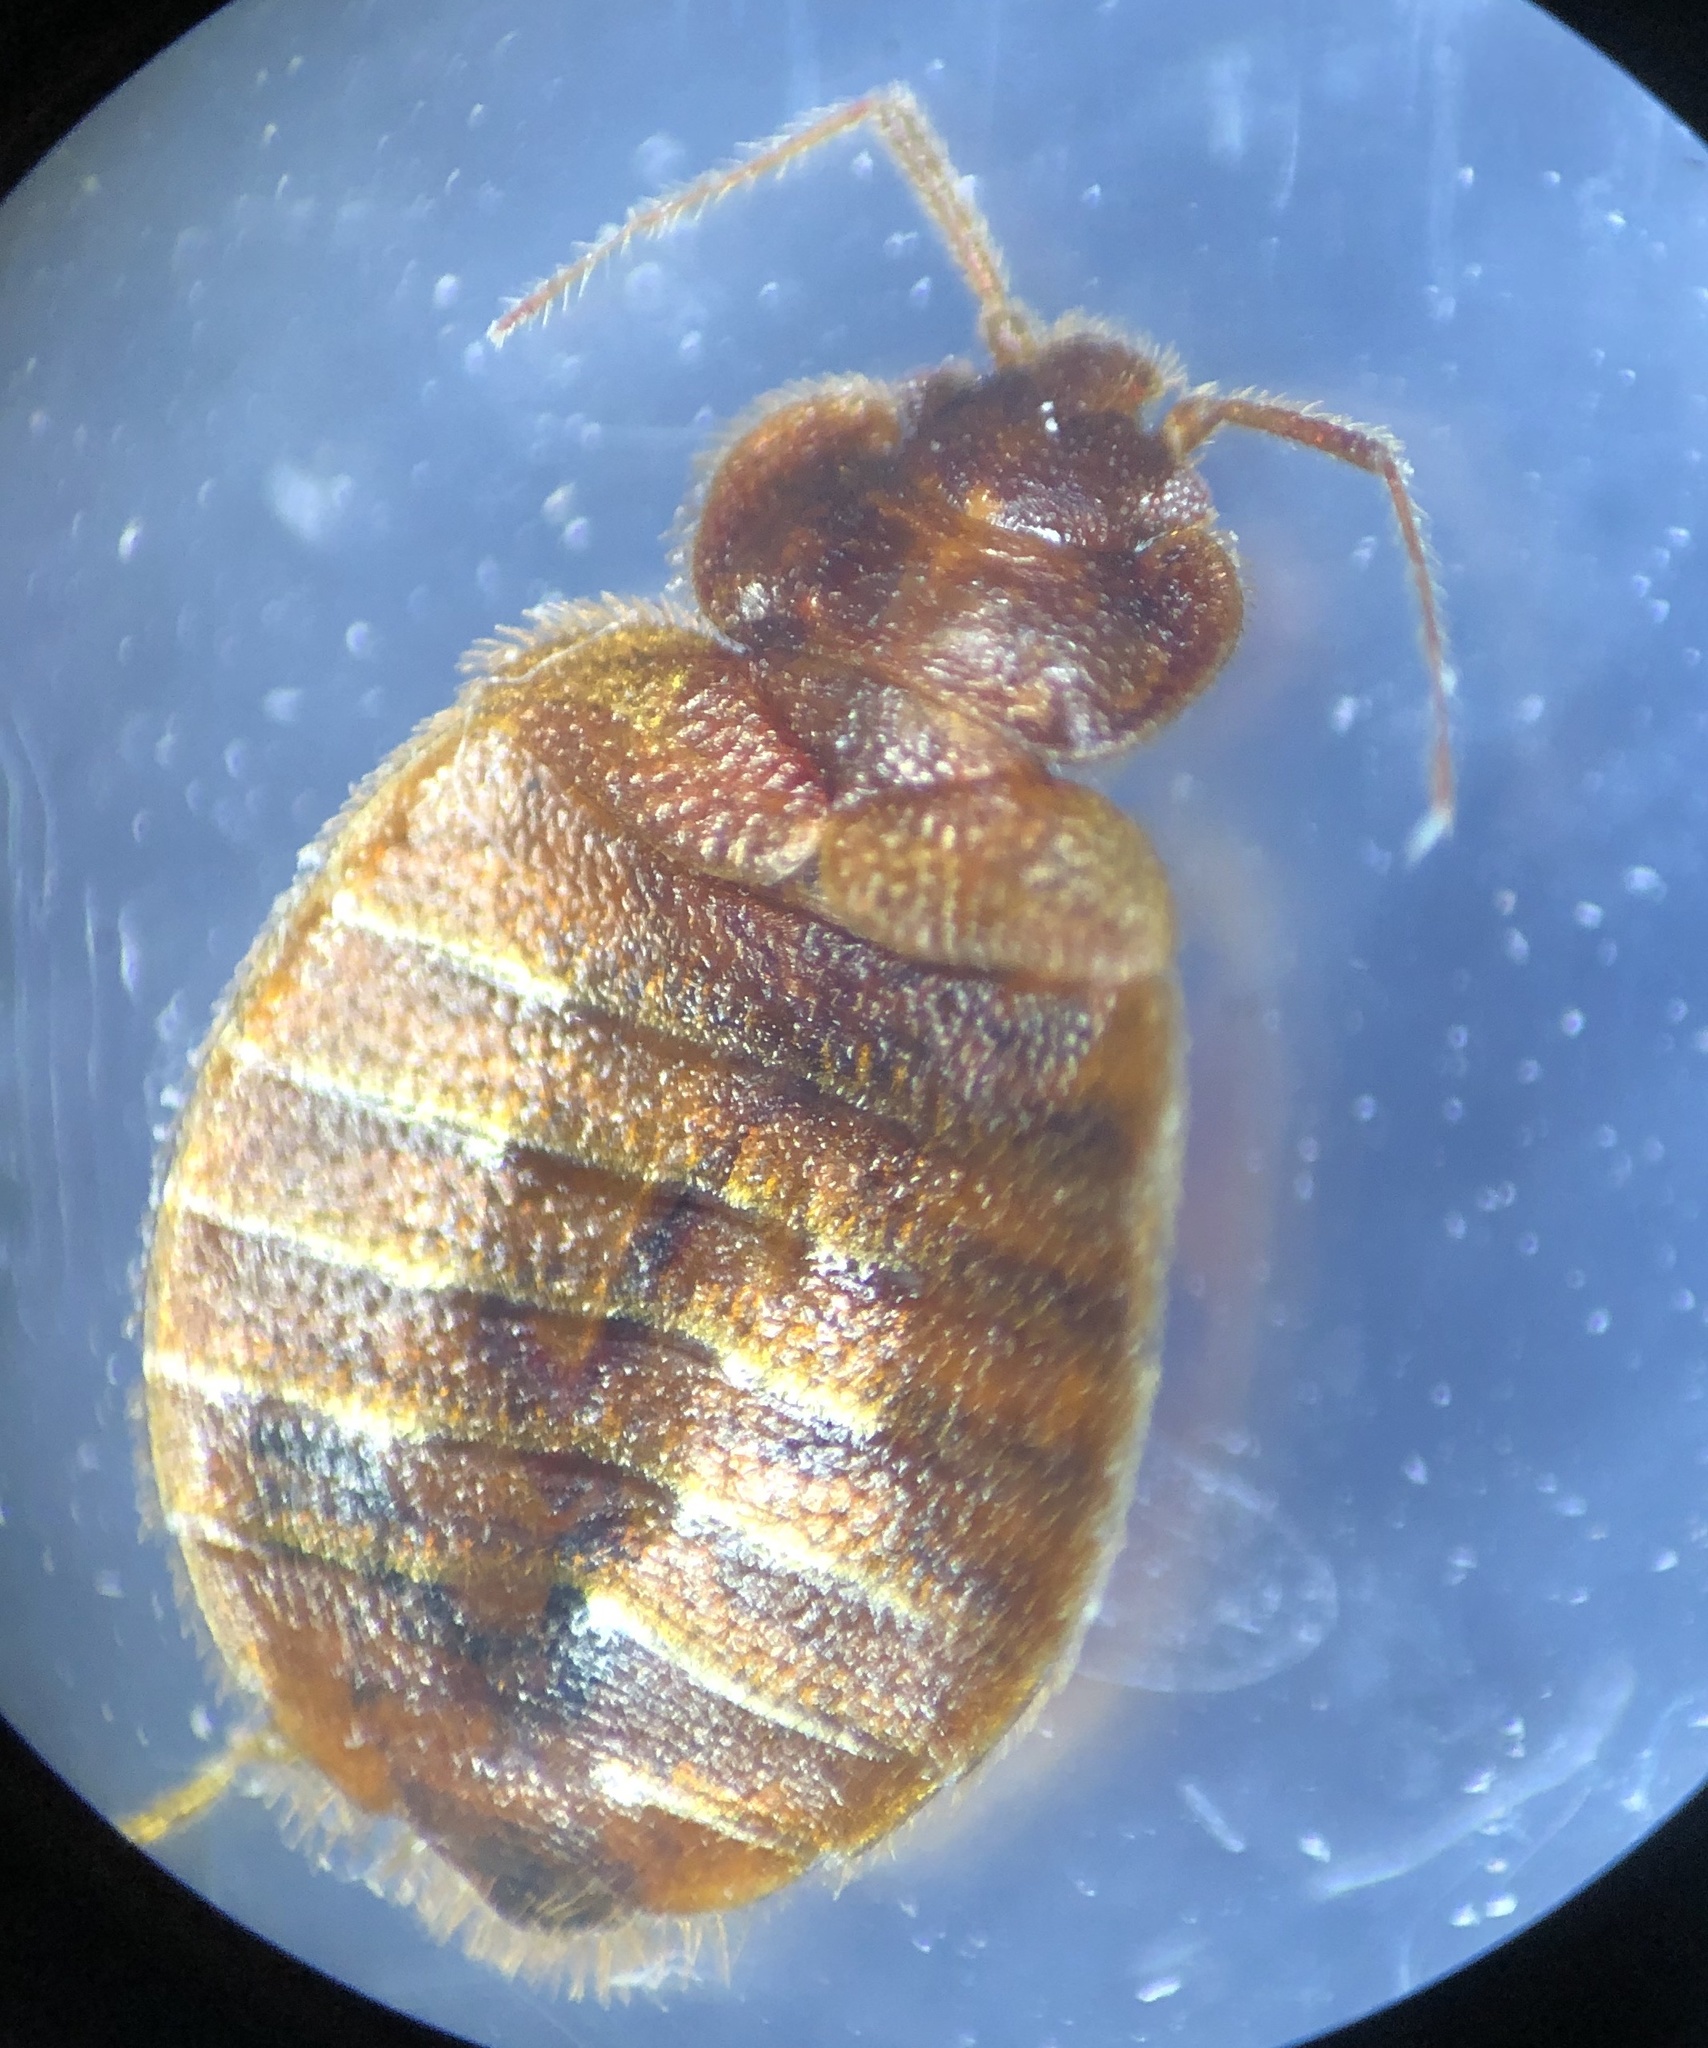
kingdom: Animalia
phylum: Arthropoda
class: Insecta
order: Hemiptera
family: Cimicidae
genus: Cimex
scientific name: Cimex lectularius
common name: Bed bug
